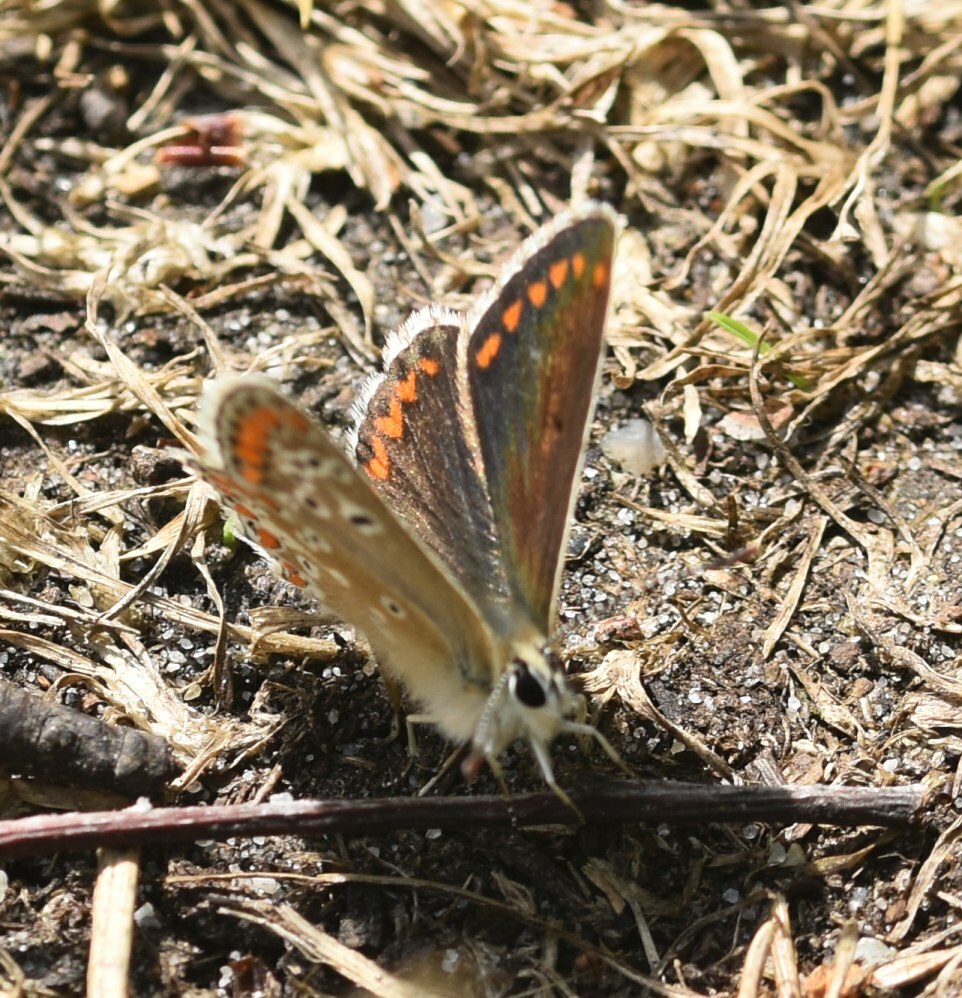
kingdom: Animalia
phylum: Arthropoda
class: Insecta
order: Lepidoptera
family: Lycaenidae
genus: Aricia
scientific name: Aricia agestis
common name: Brown argus
